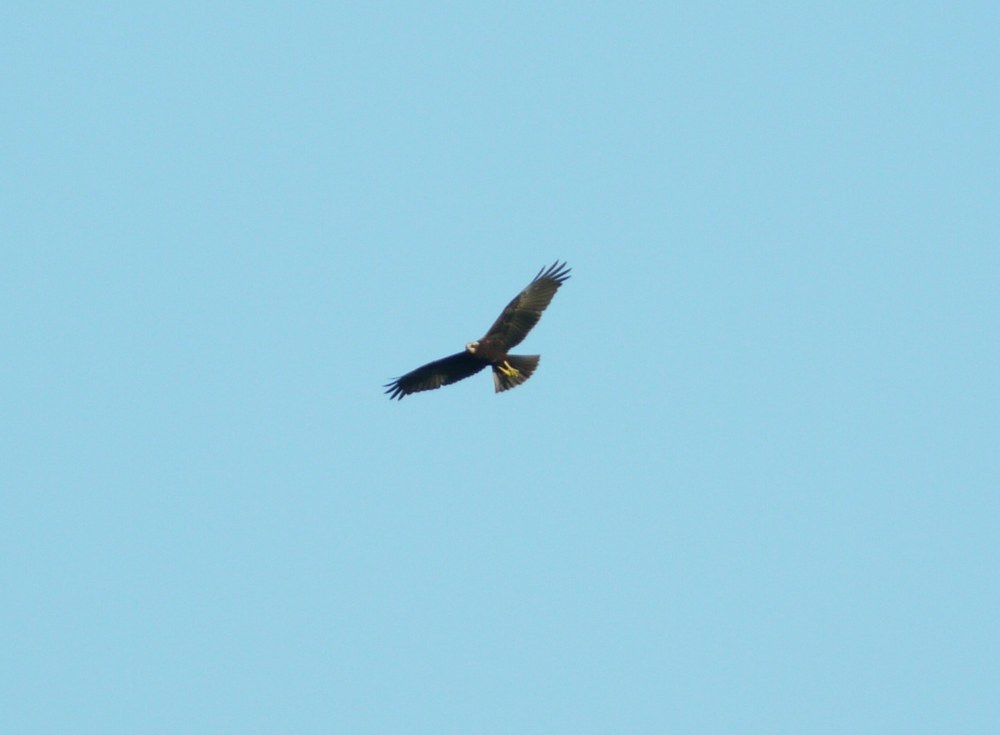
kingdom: Animalia
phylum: Chordata
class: Aves
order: Accipitriformes
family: Accipitridae
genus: Circus
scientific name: Circus aeruginosus
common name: Western marsh harrier
